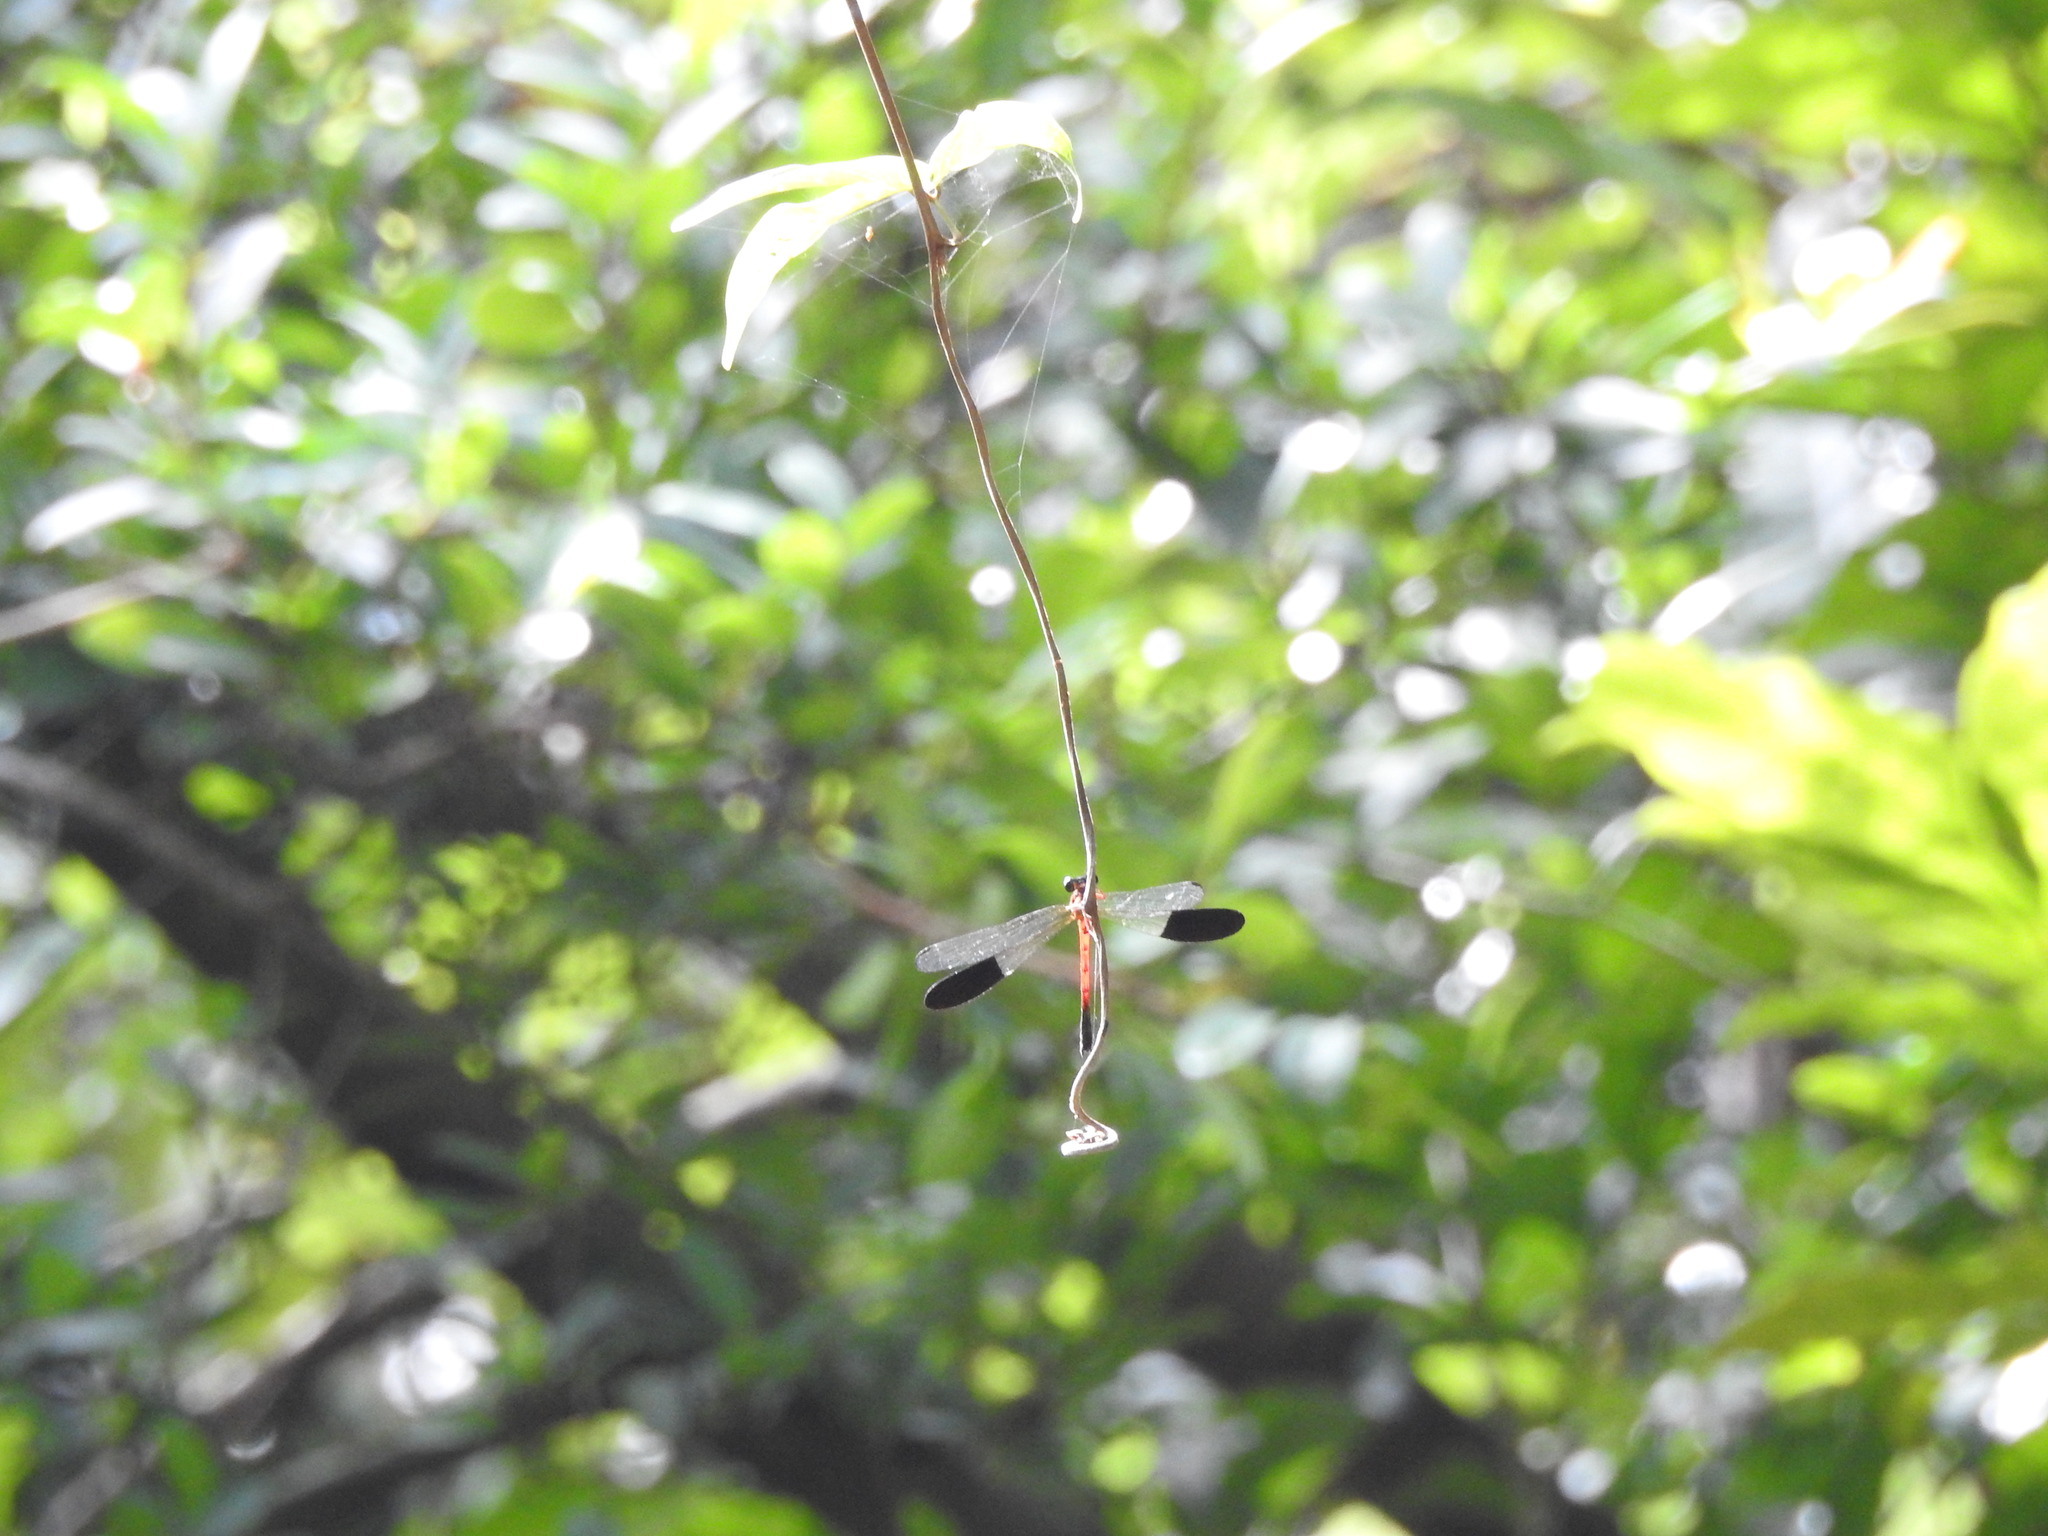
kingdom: Animalia
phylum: Arthropoda
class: Insecta
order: Odonata
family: Euphaeidae
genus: Euphaea
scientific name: Euphaea cardinalis
